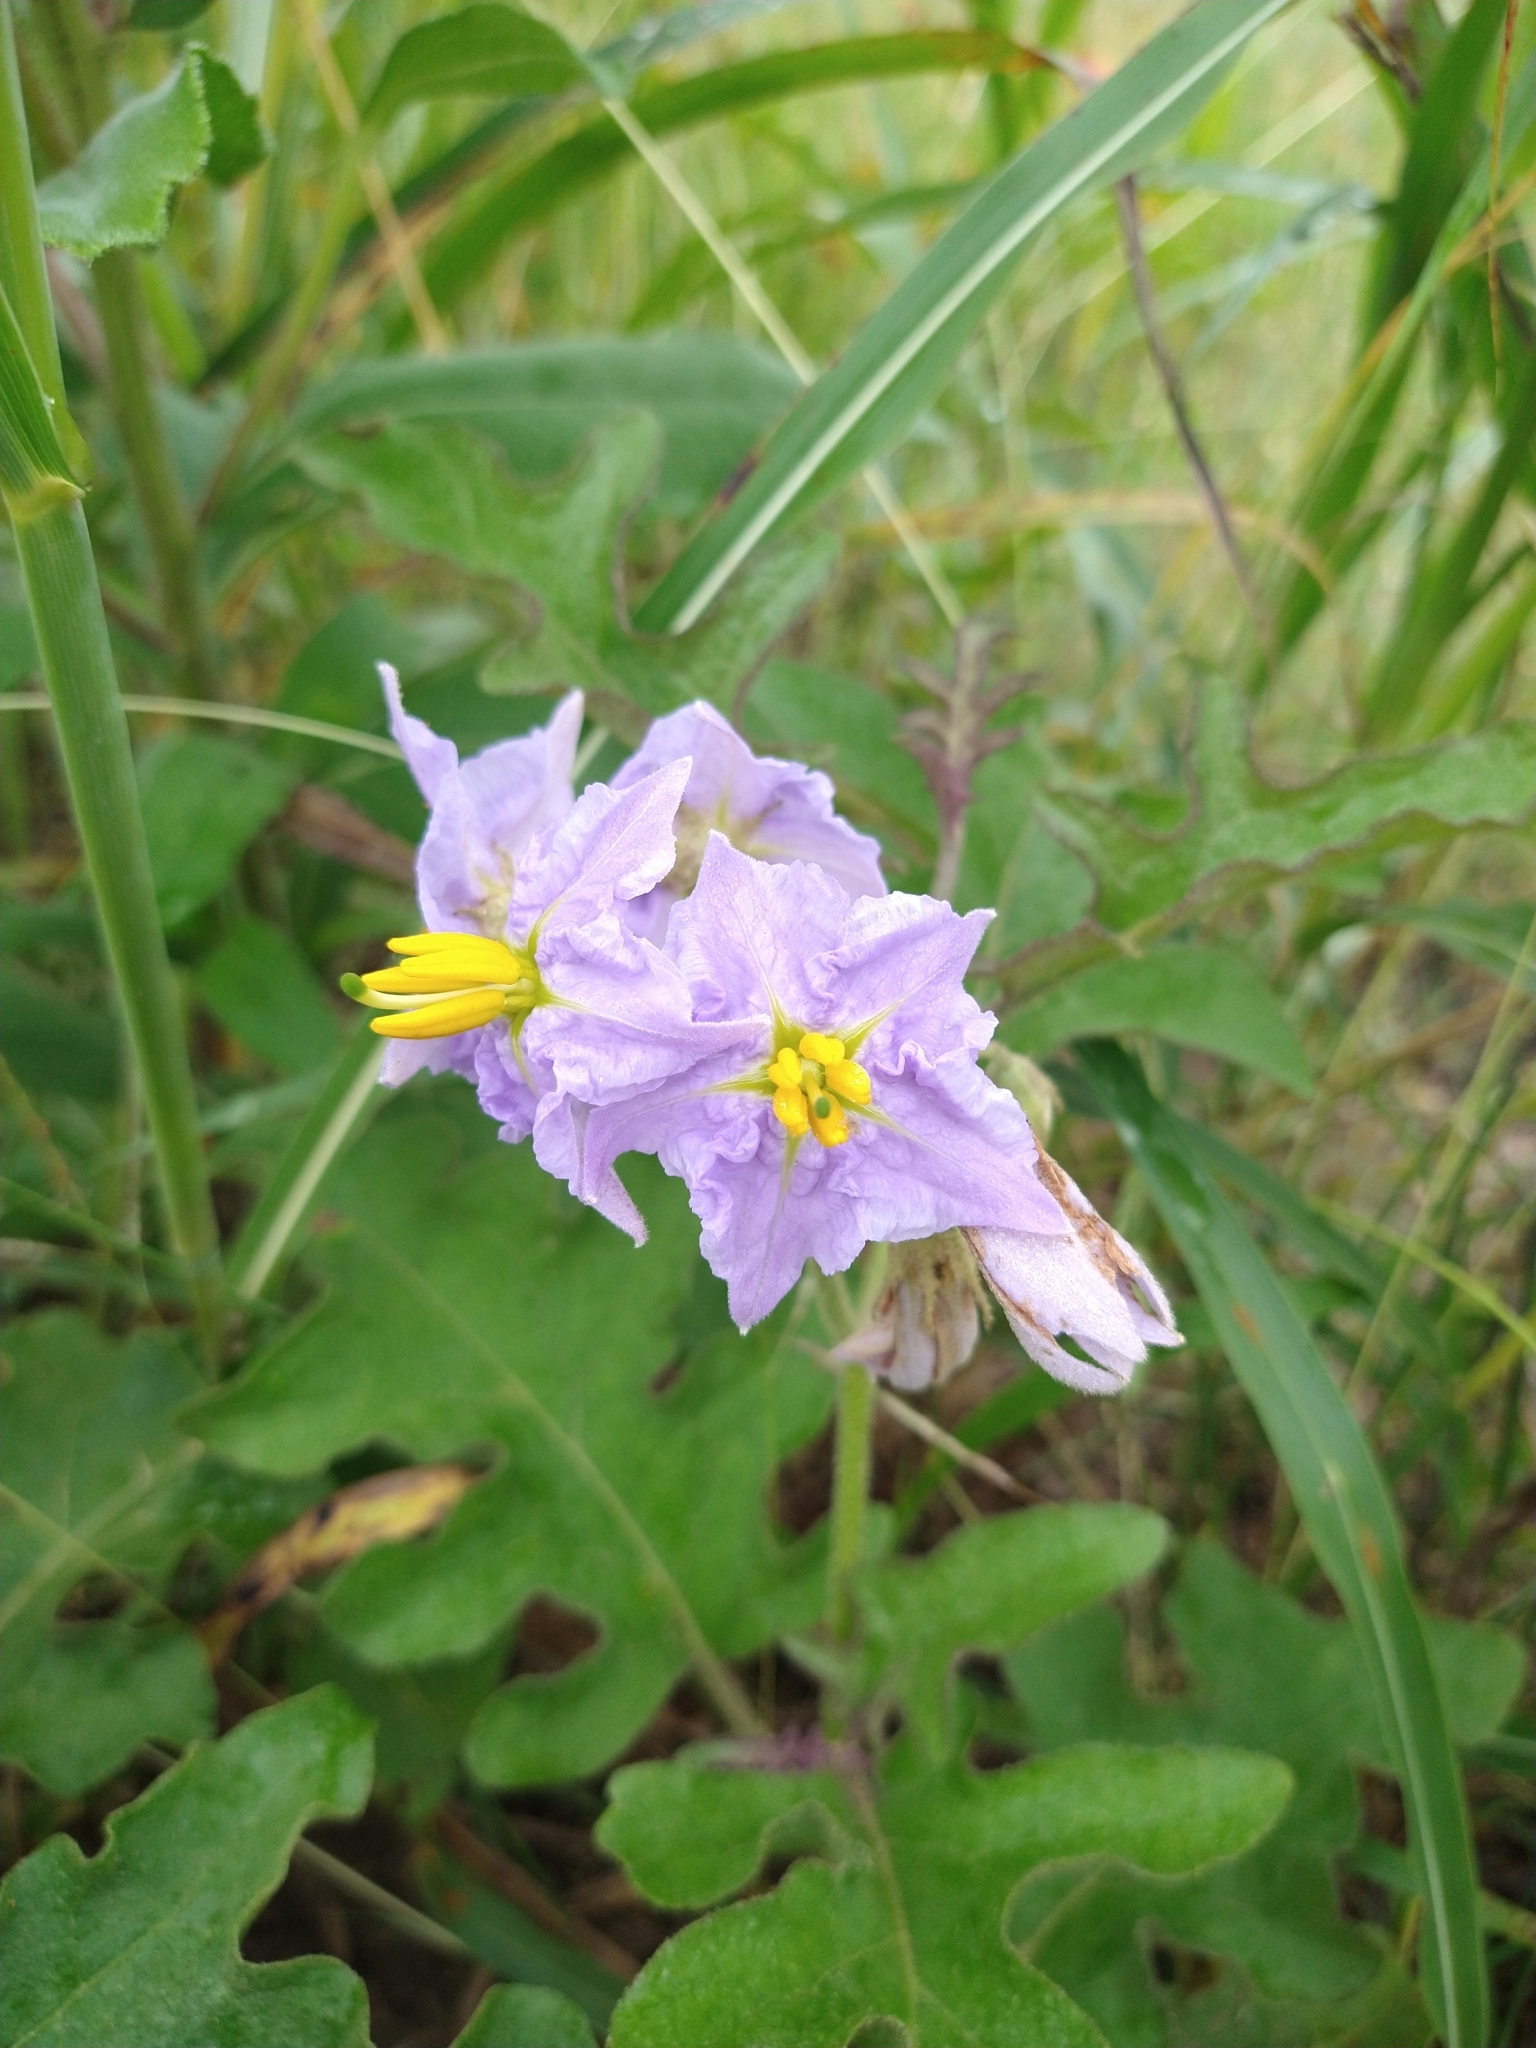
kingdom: Plantae
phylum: Tracheophyta
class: Magnoliopsida
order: Solanales
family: Solanaceae
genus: Solanum
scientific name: Solanum dimidiatum
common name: Carolina horse-nettle
